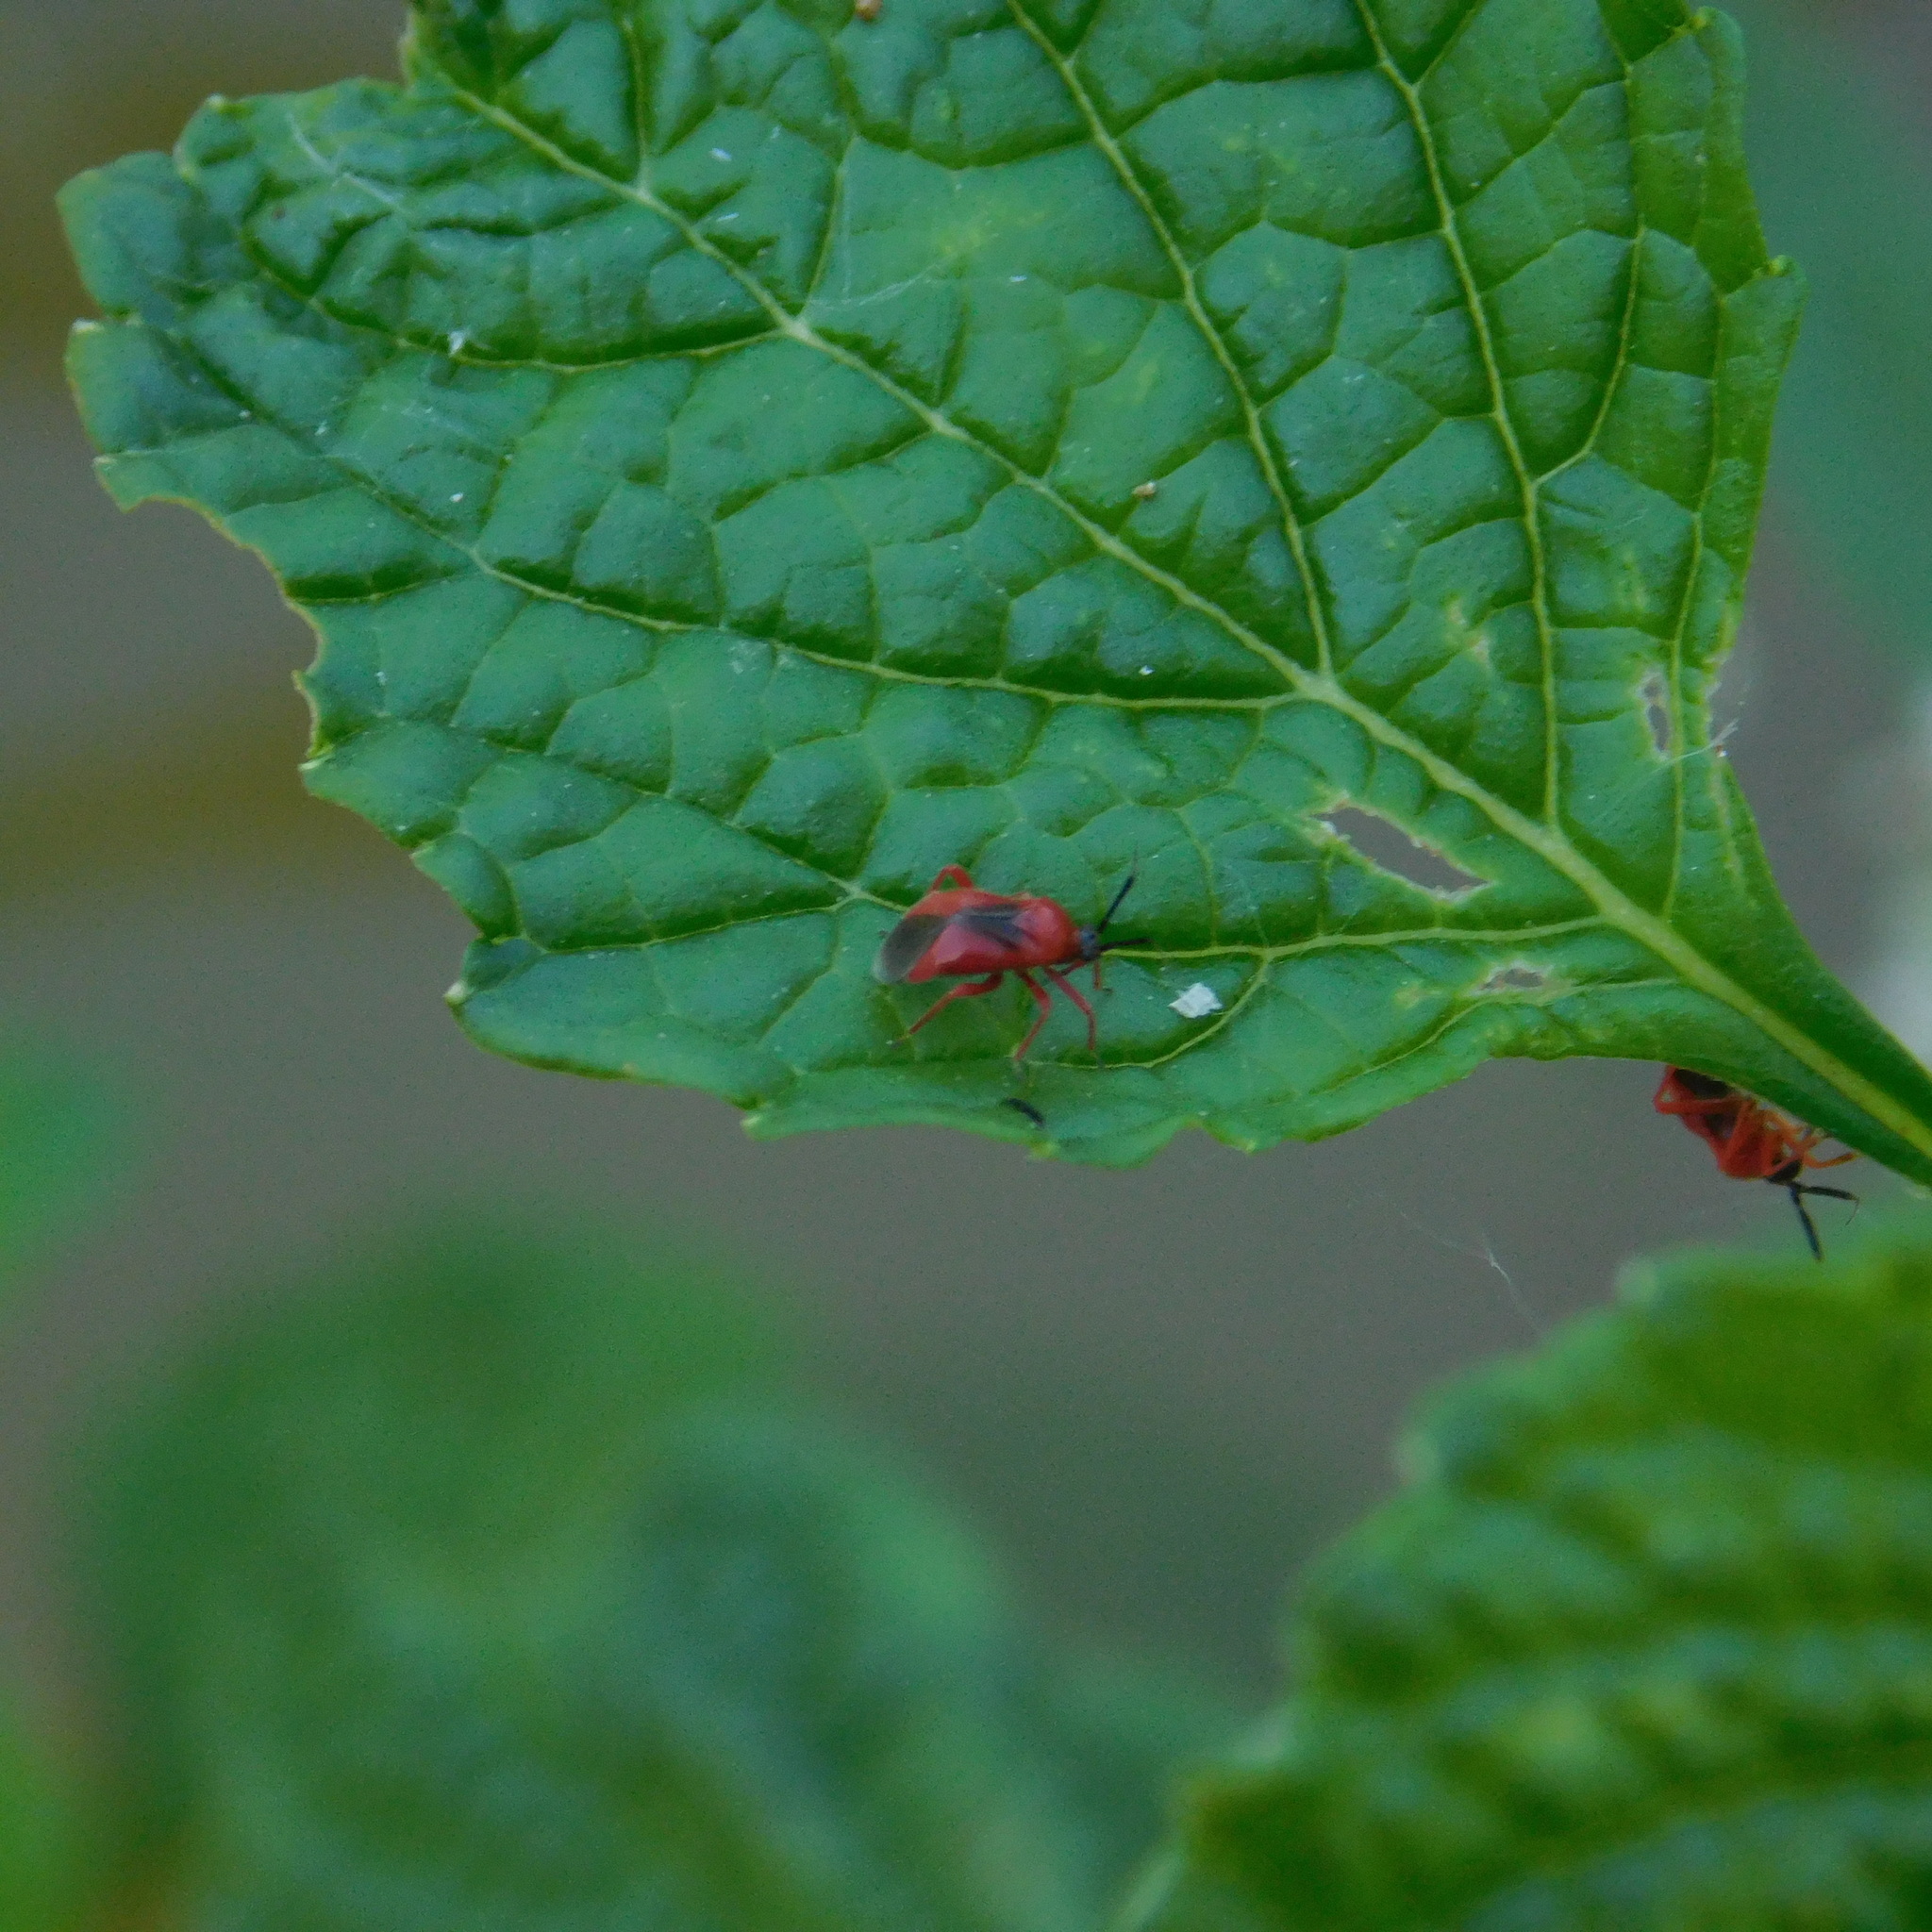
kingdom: Animalia
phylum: Arthropoda
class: Insecta
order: Hemiptera
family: Miridae
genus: Pachymerocerus
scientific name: Pachymerocerus erythronotus
